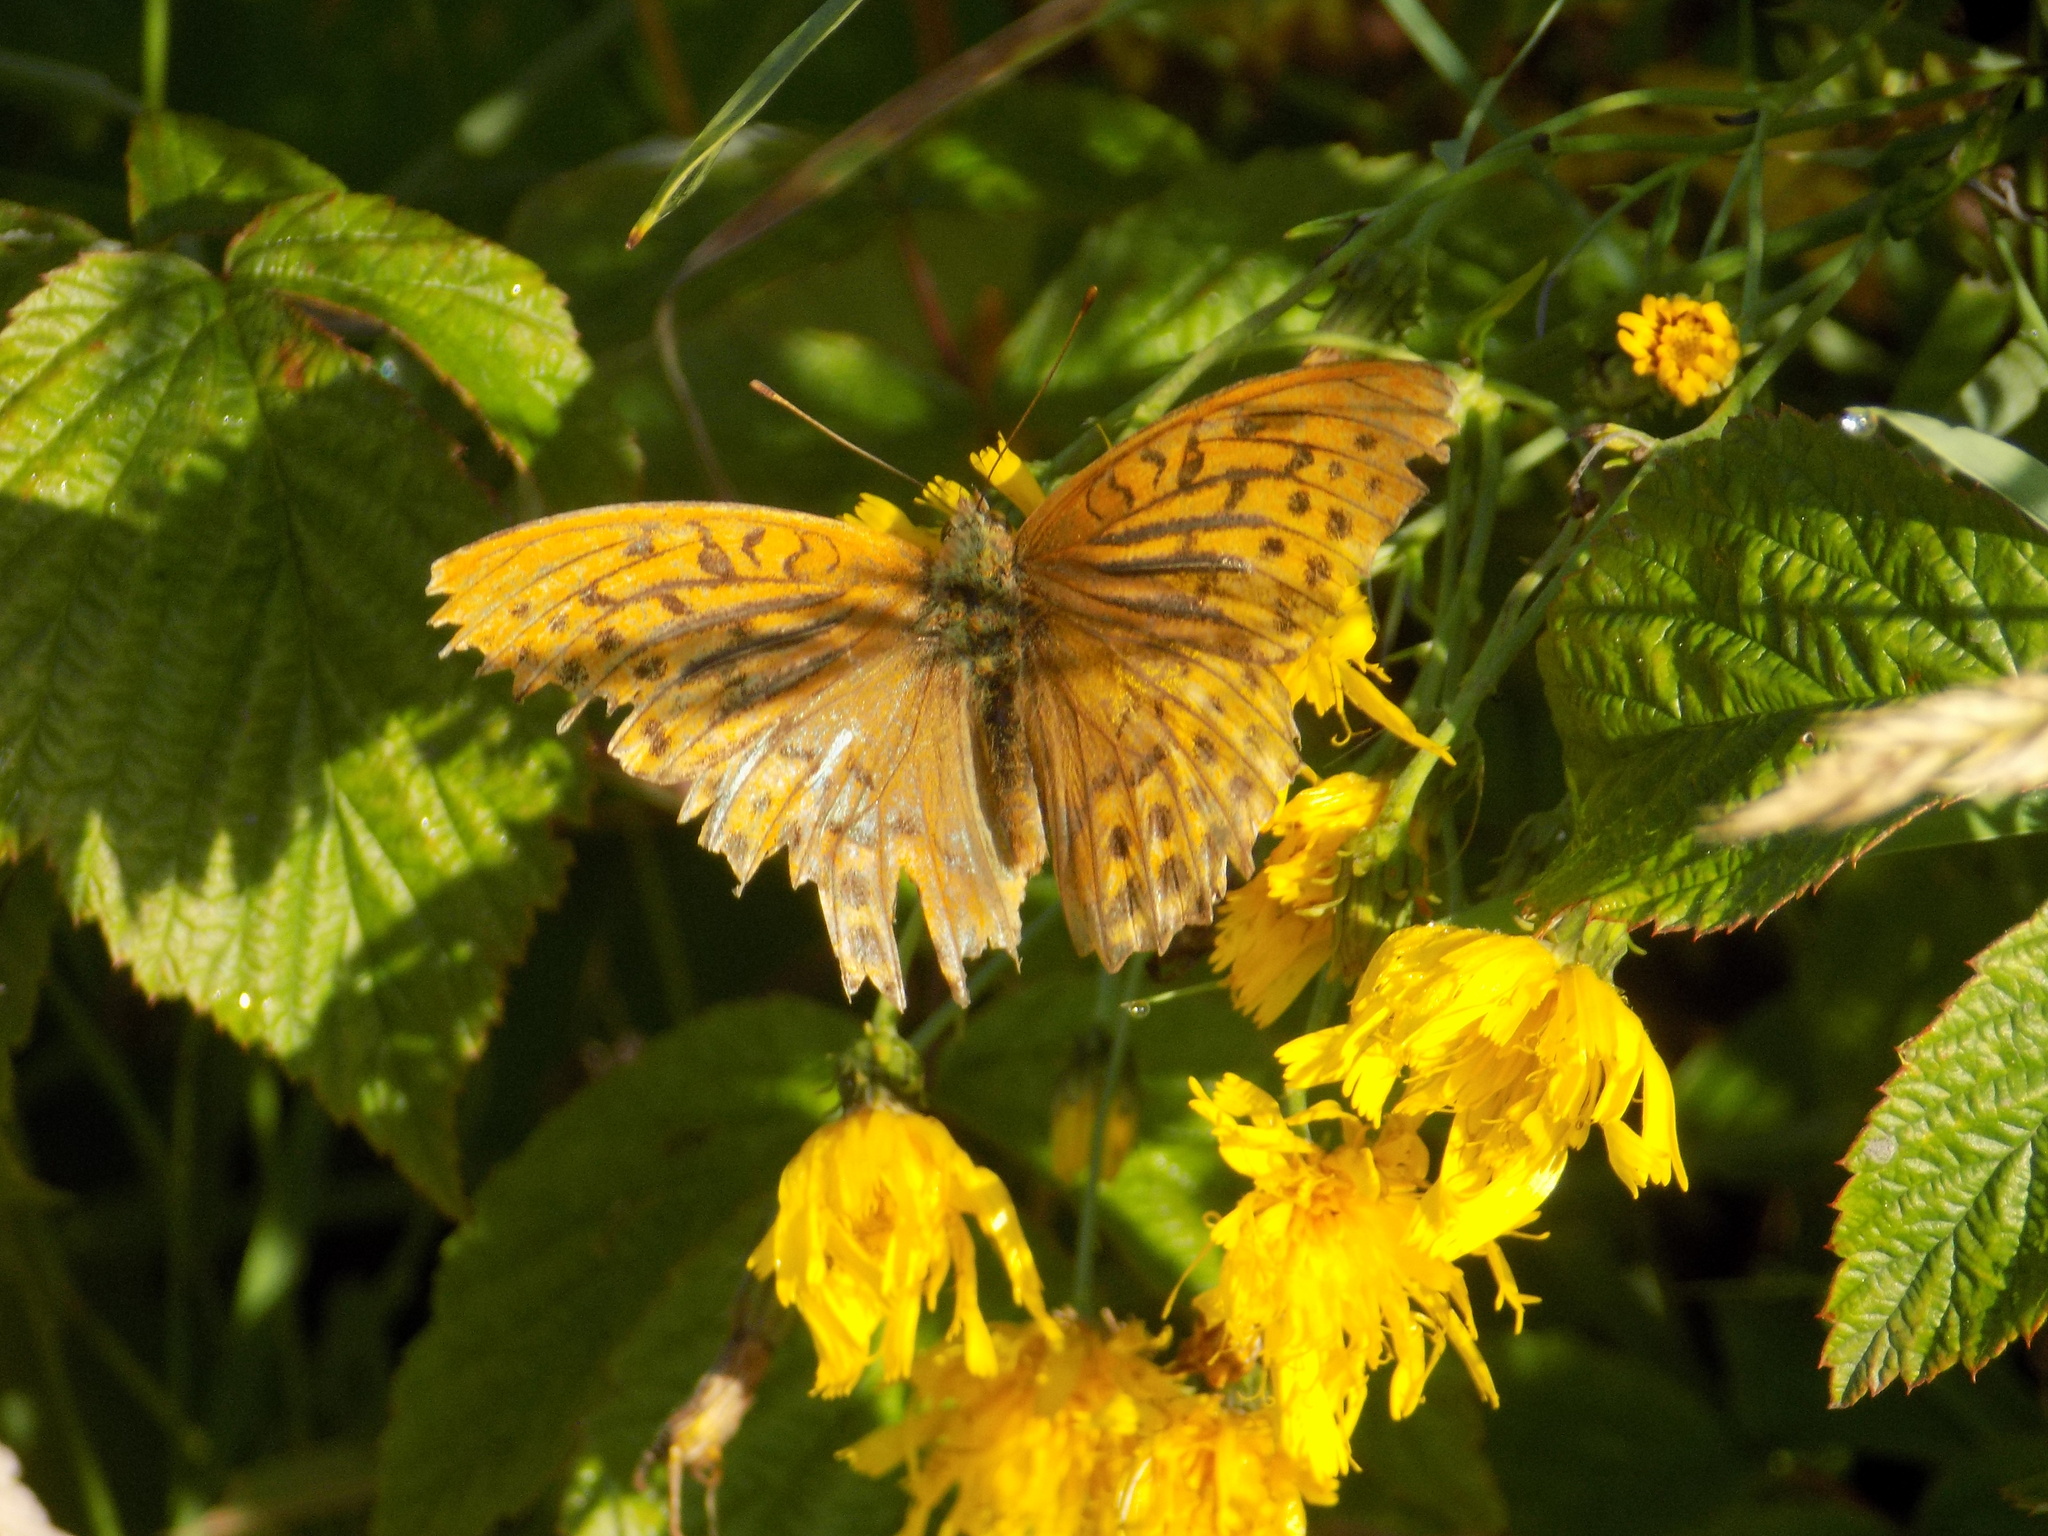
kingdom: Animalia
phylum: Arthropoda
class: Insecta
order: Lepidoptera
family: Nymphalidae
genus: Argynnis
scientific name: Argynnis paphia
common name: Silver-washed fritillary
